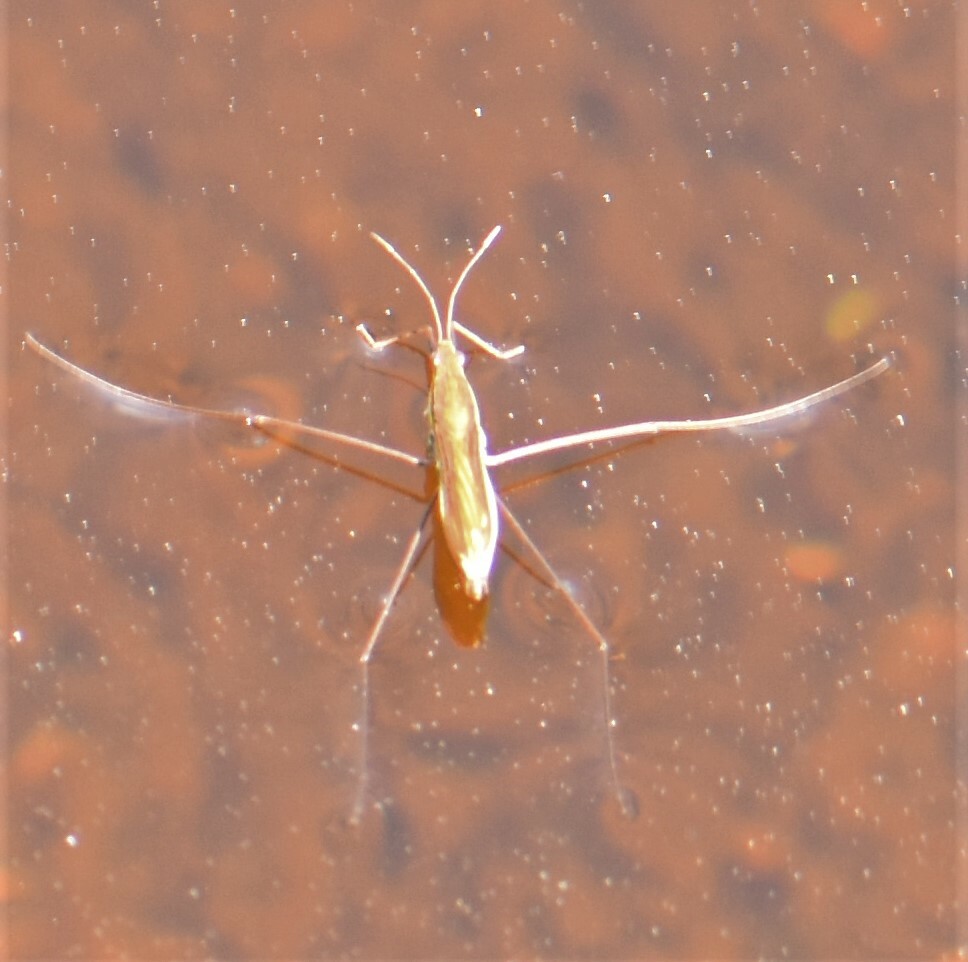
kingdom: Animalia
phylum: Arthropoda
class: Insecta
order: Hemiptera
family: Gerridae
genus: Limnoporus
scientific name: Limnoporus
